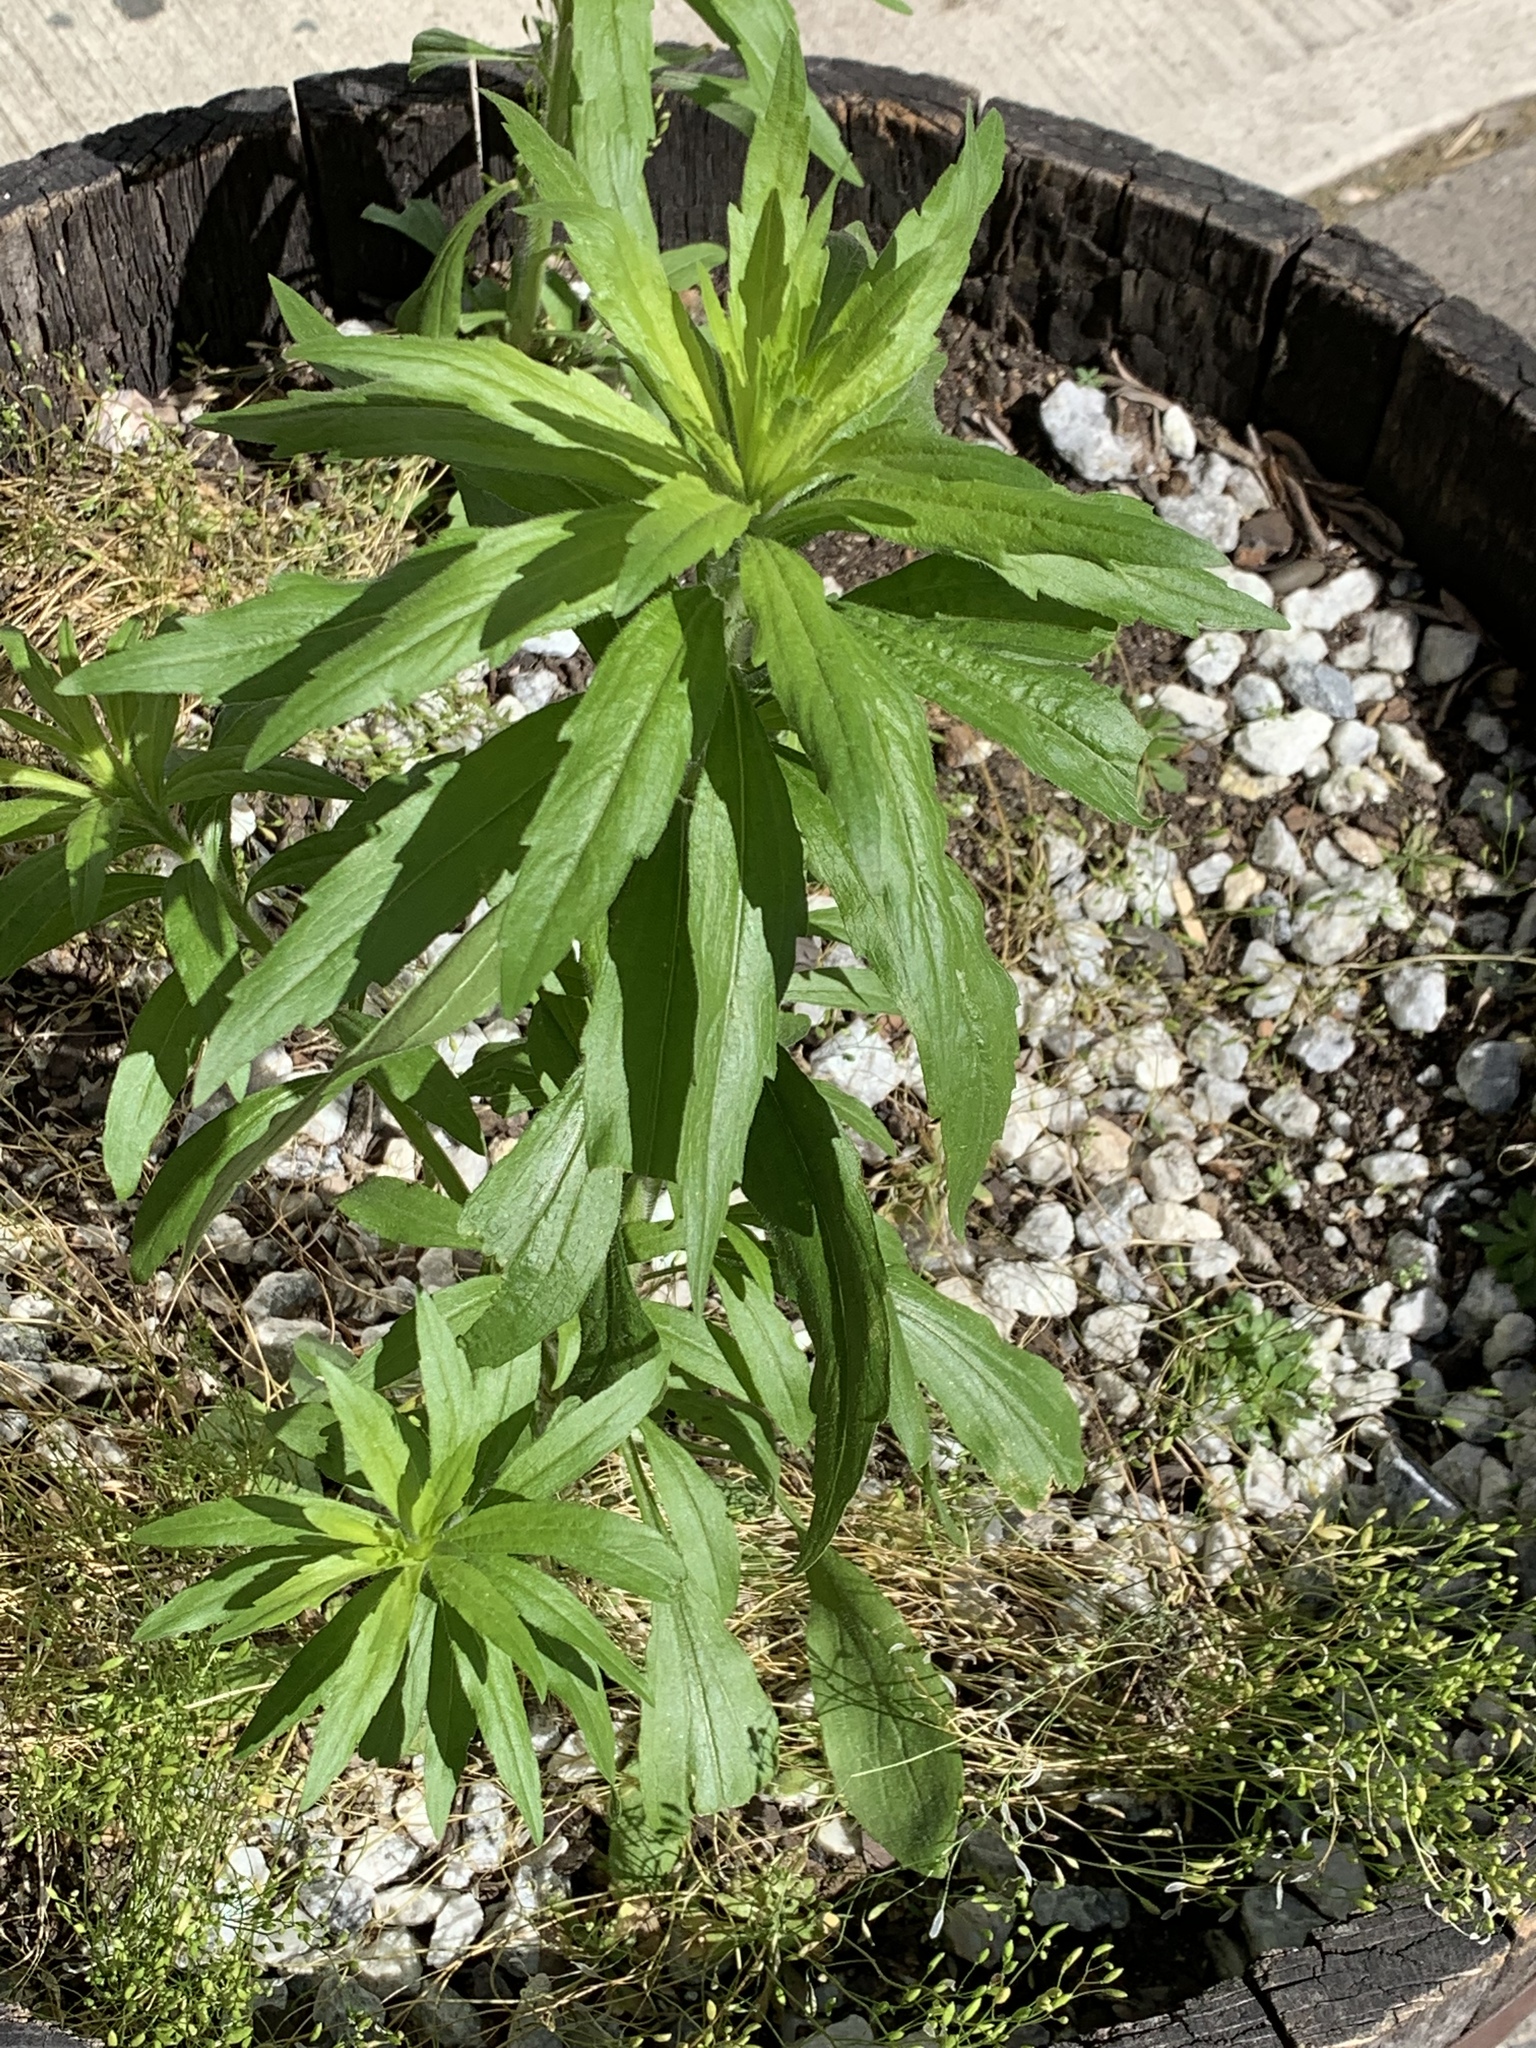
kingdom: Plantae
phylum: Tracheophyta
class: Magnoliopsida
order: Asterales
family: Asteraceae
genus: Erigeron
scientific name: Erigeron canadensis
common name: Canadian fleabane
